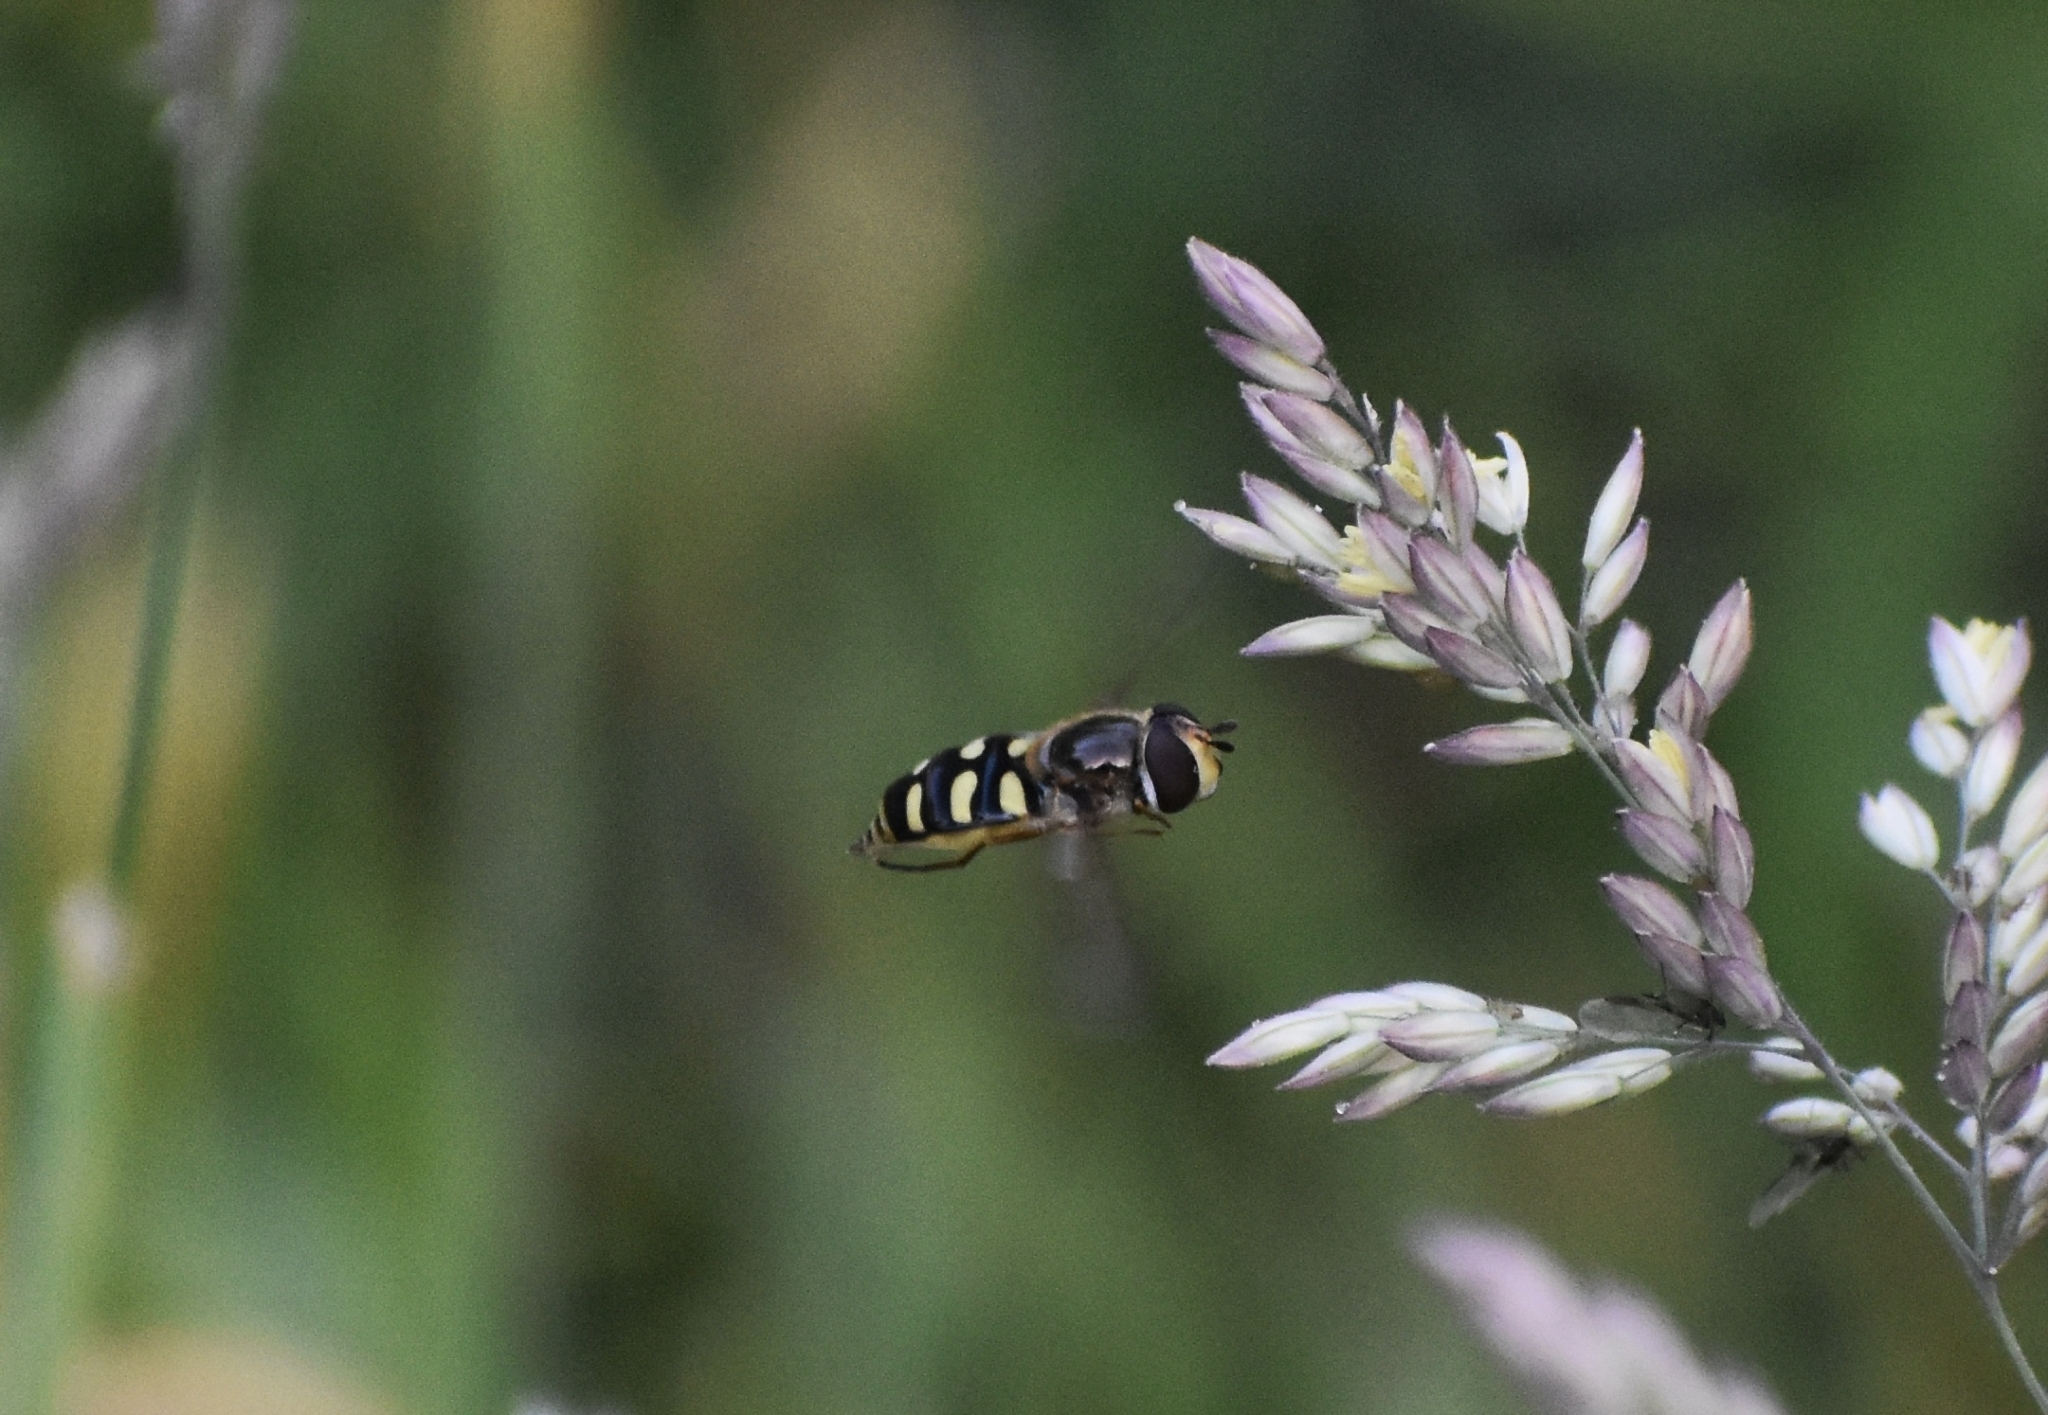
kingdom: Animalia
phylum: Arthropoda
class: Insecta
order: Diptera
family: Syrphidae
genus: Eupeodes
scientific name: Eupeodes luniger
